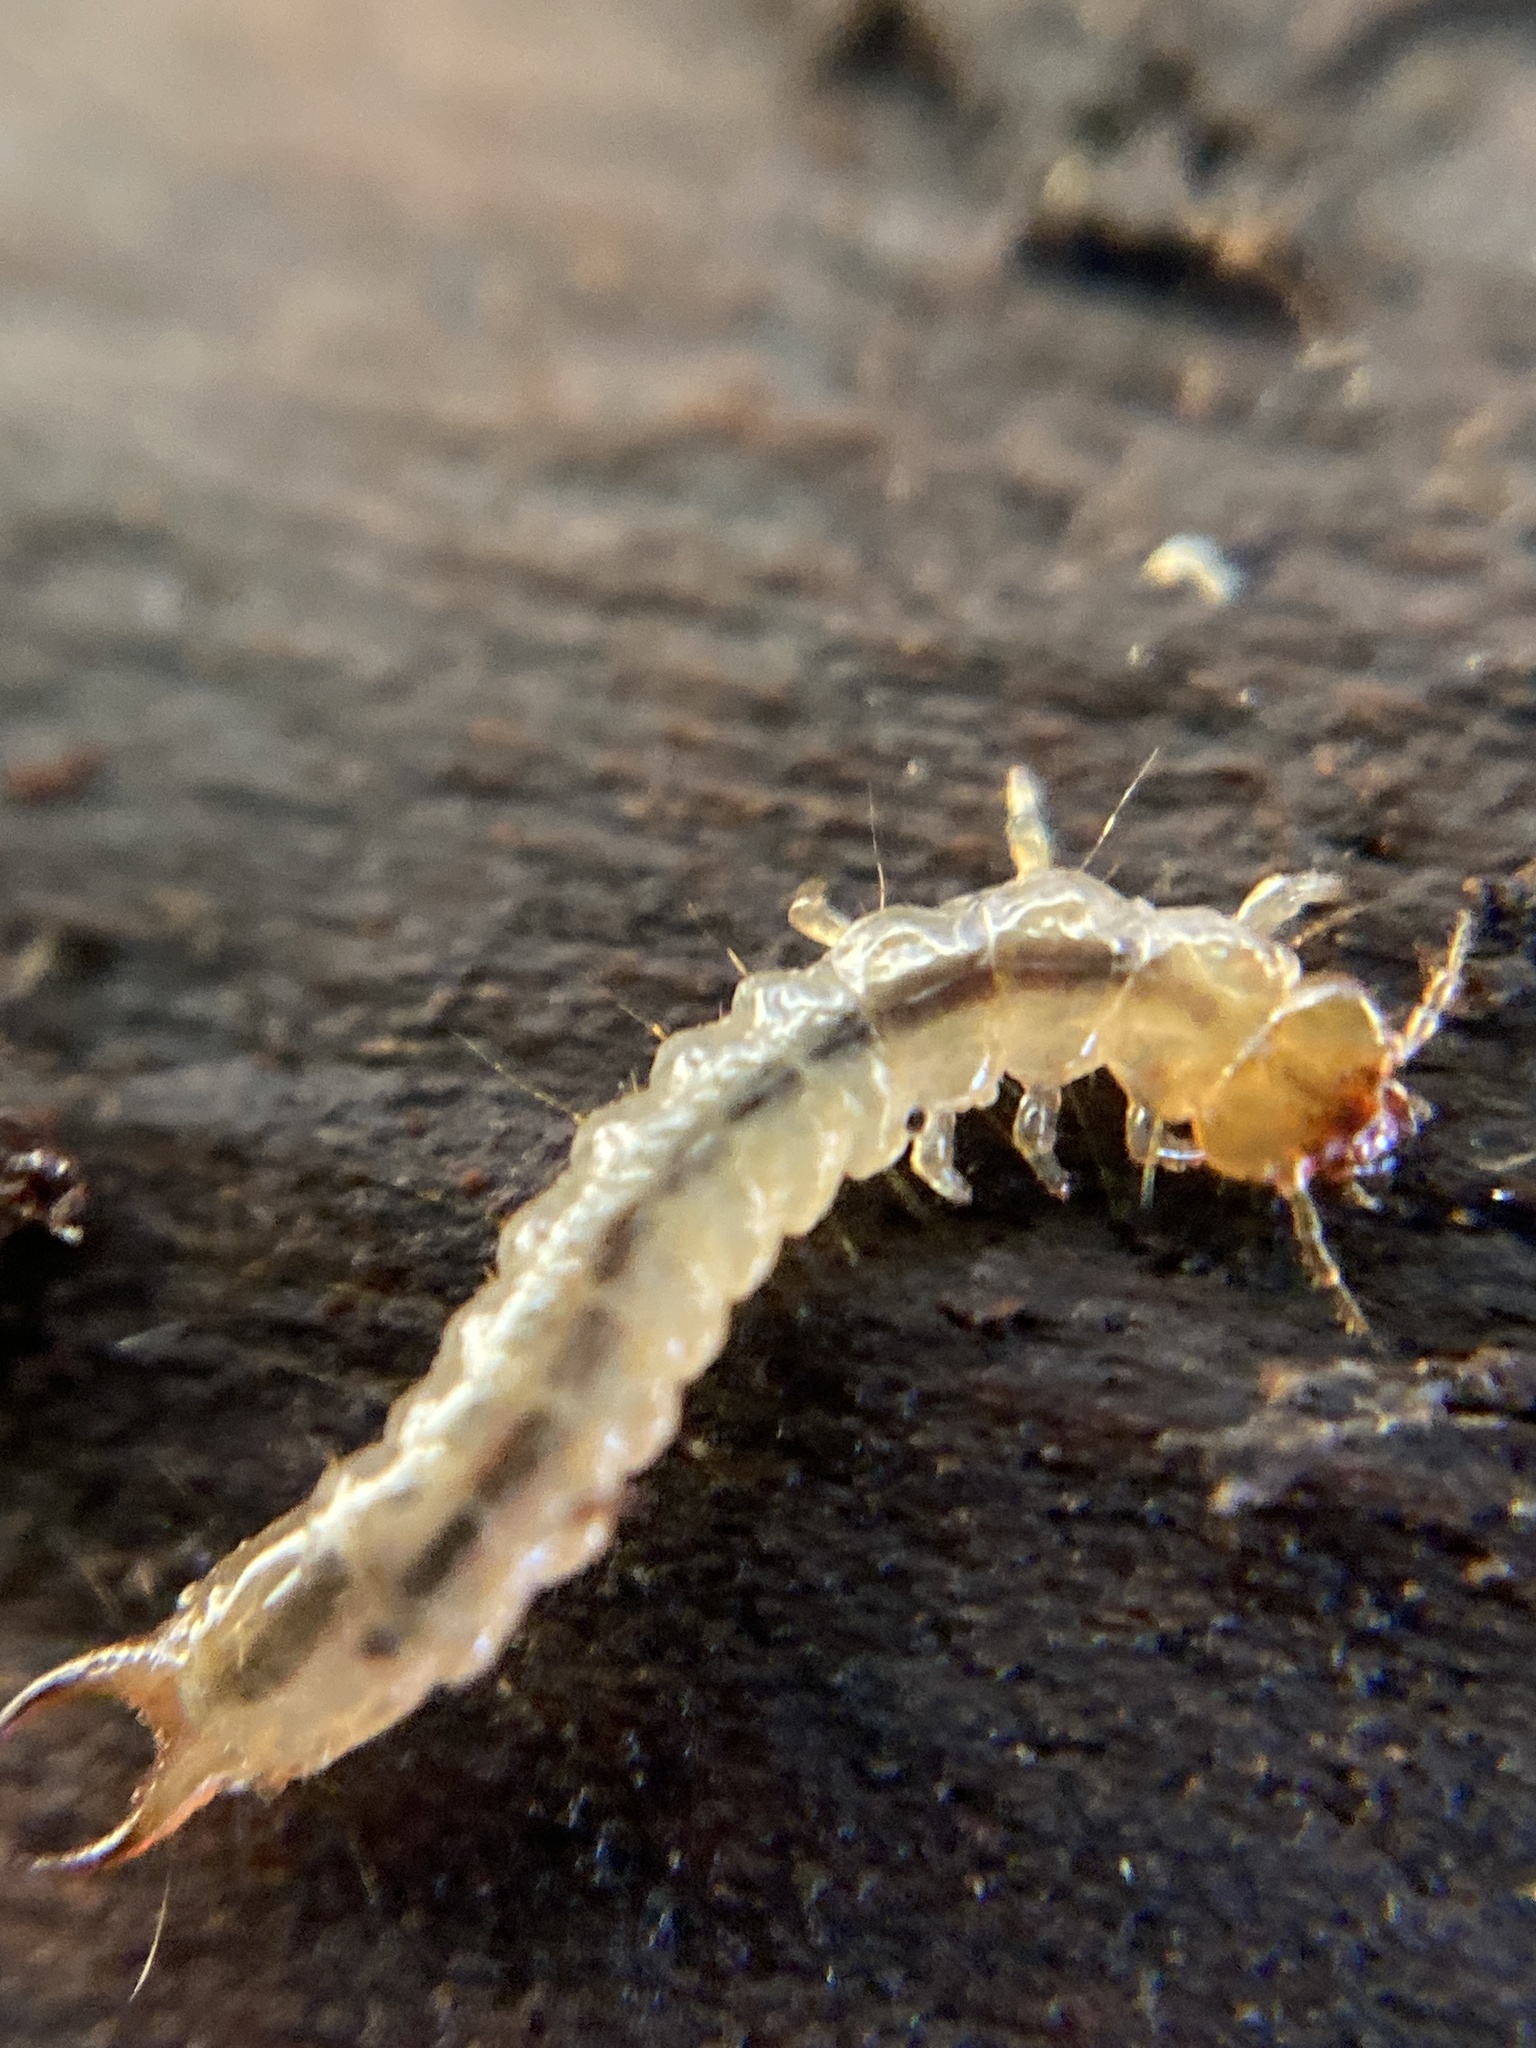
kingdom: Animalia
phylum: Arthropoda
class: Insecta
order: Coleoptera
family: Pyrochroidae
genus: Schizotus
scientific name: Schizotus pectinicornis
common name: Scarce cardinal beetle
